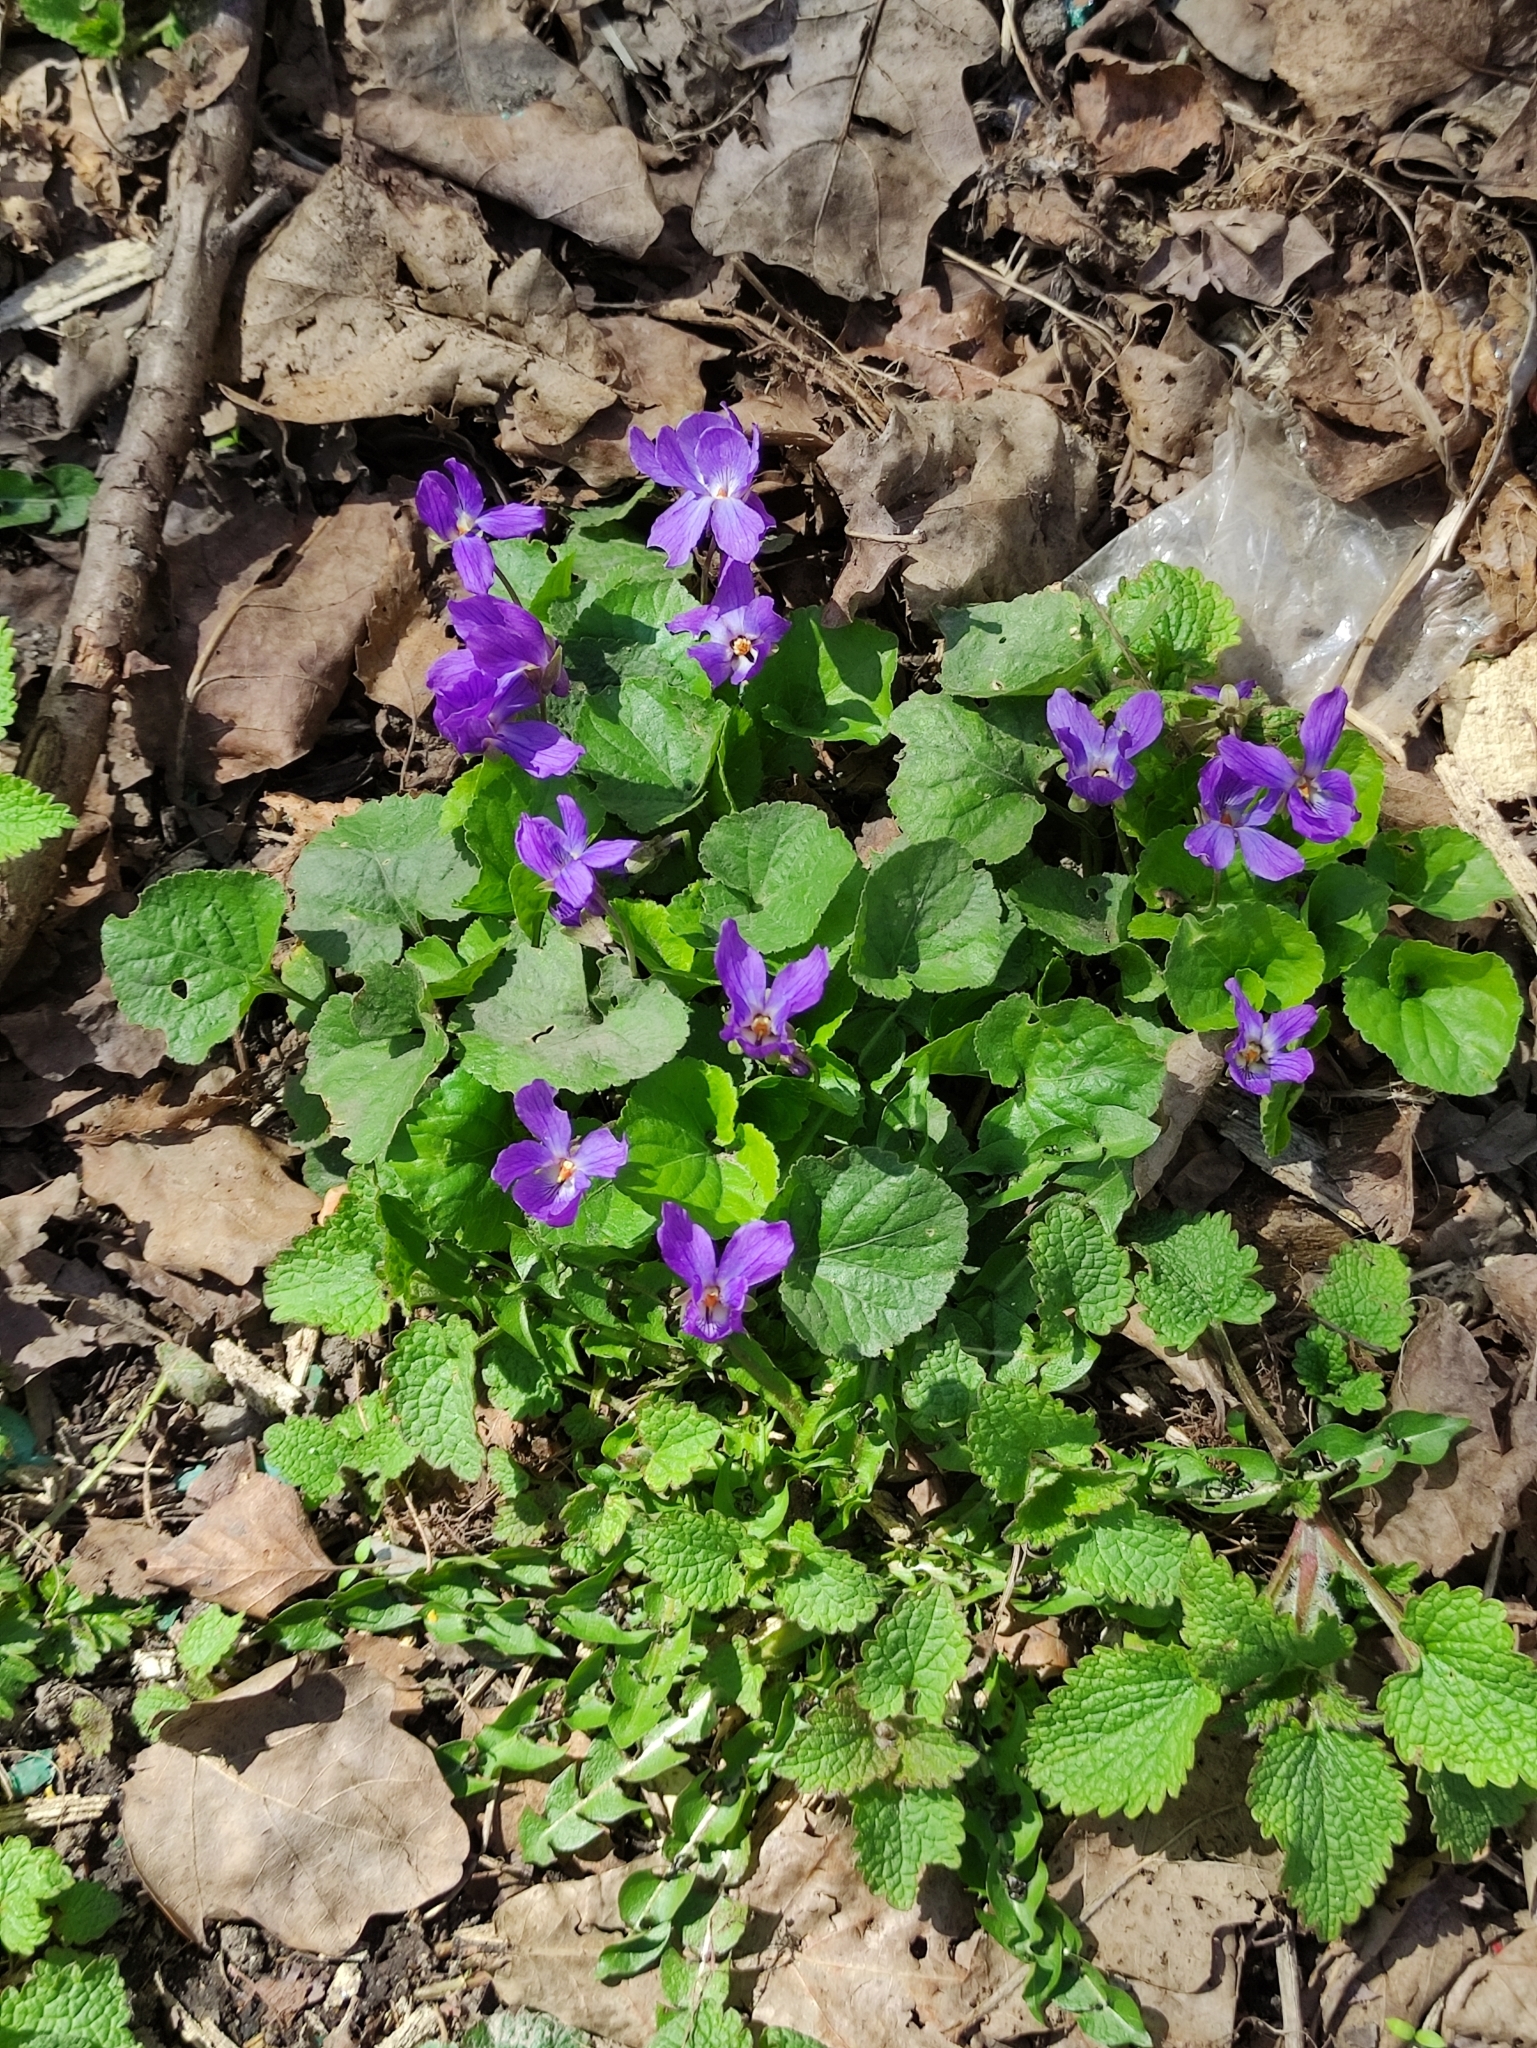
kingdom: Plantae
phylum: Tracheophyta
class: Magnoliopsida
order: Malpighiales
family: Violaceae
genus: Viola
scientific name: Viola odorata
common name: Sweet violet
